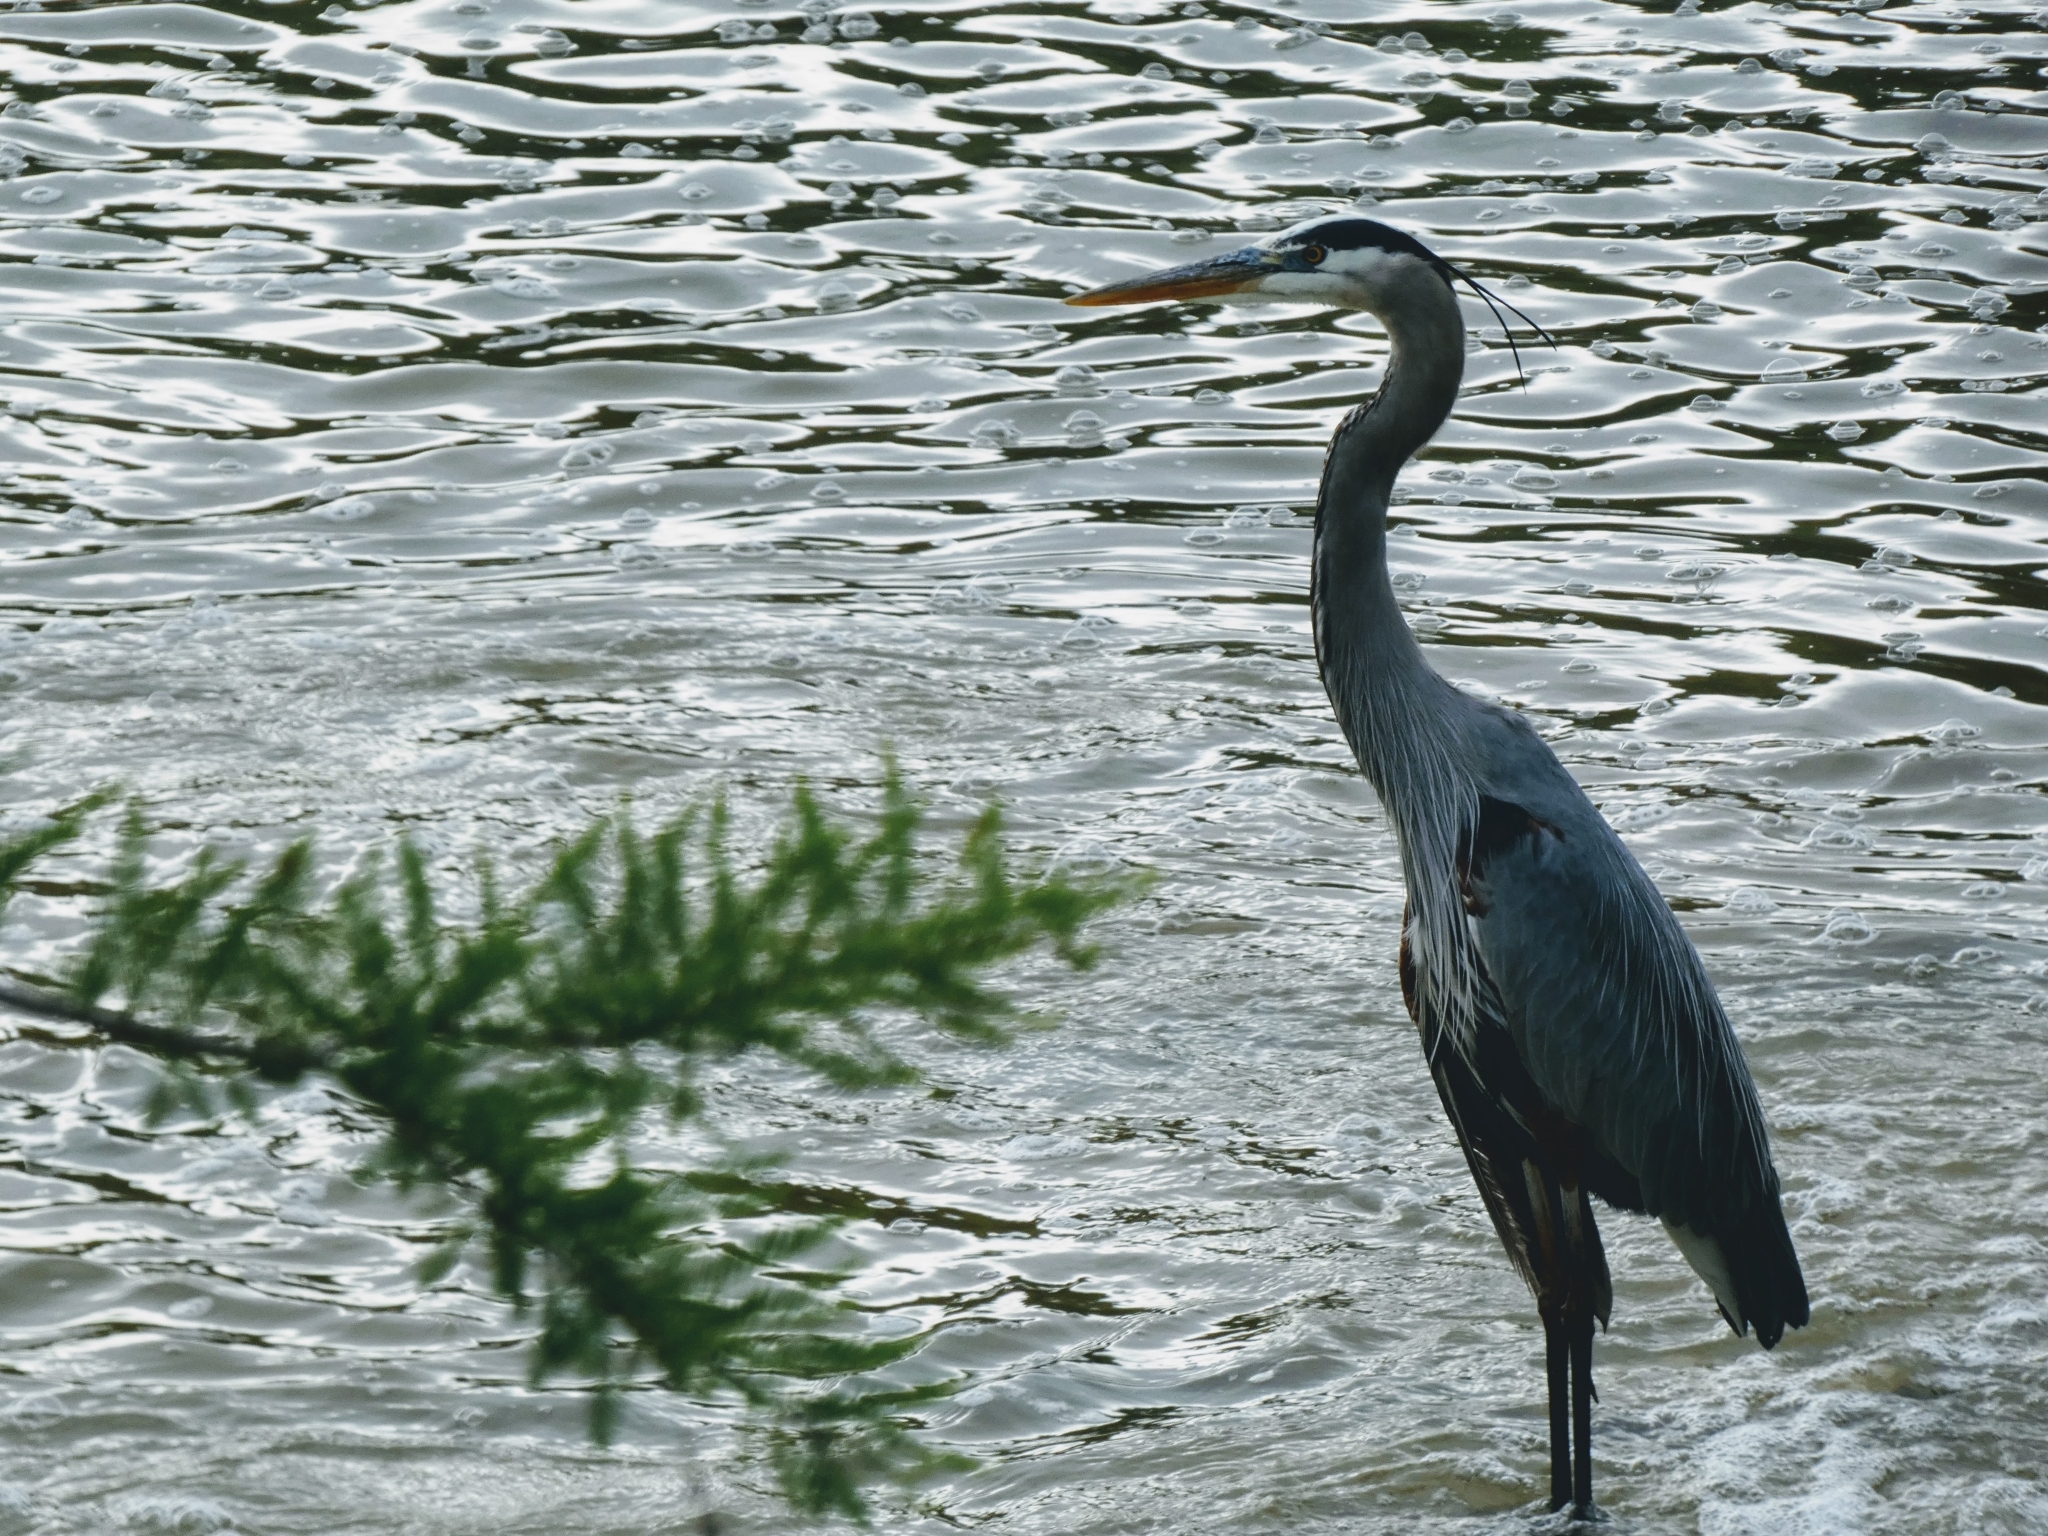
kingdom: Animalia
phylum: Chordata
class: Aves
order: Pelecaniformes
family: Ardeidae
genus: Ardea
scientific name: Ardea herodias
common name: Great blue heron
